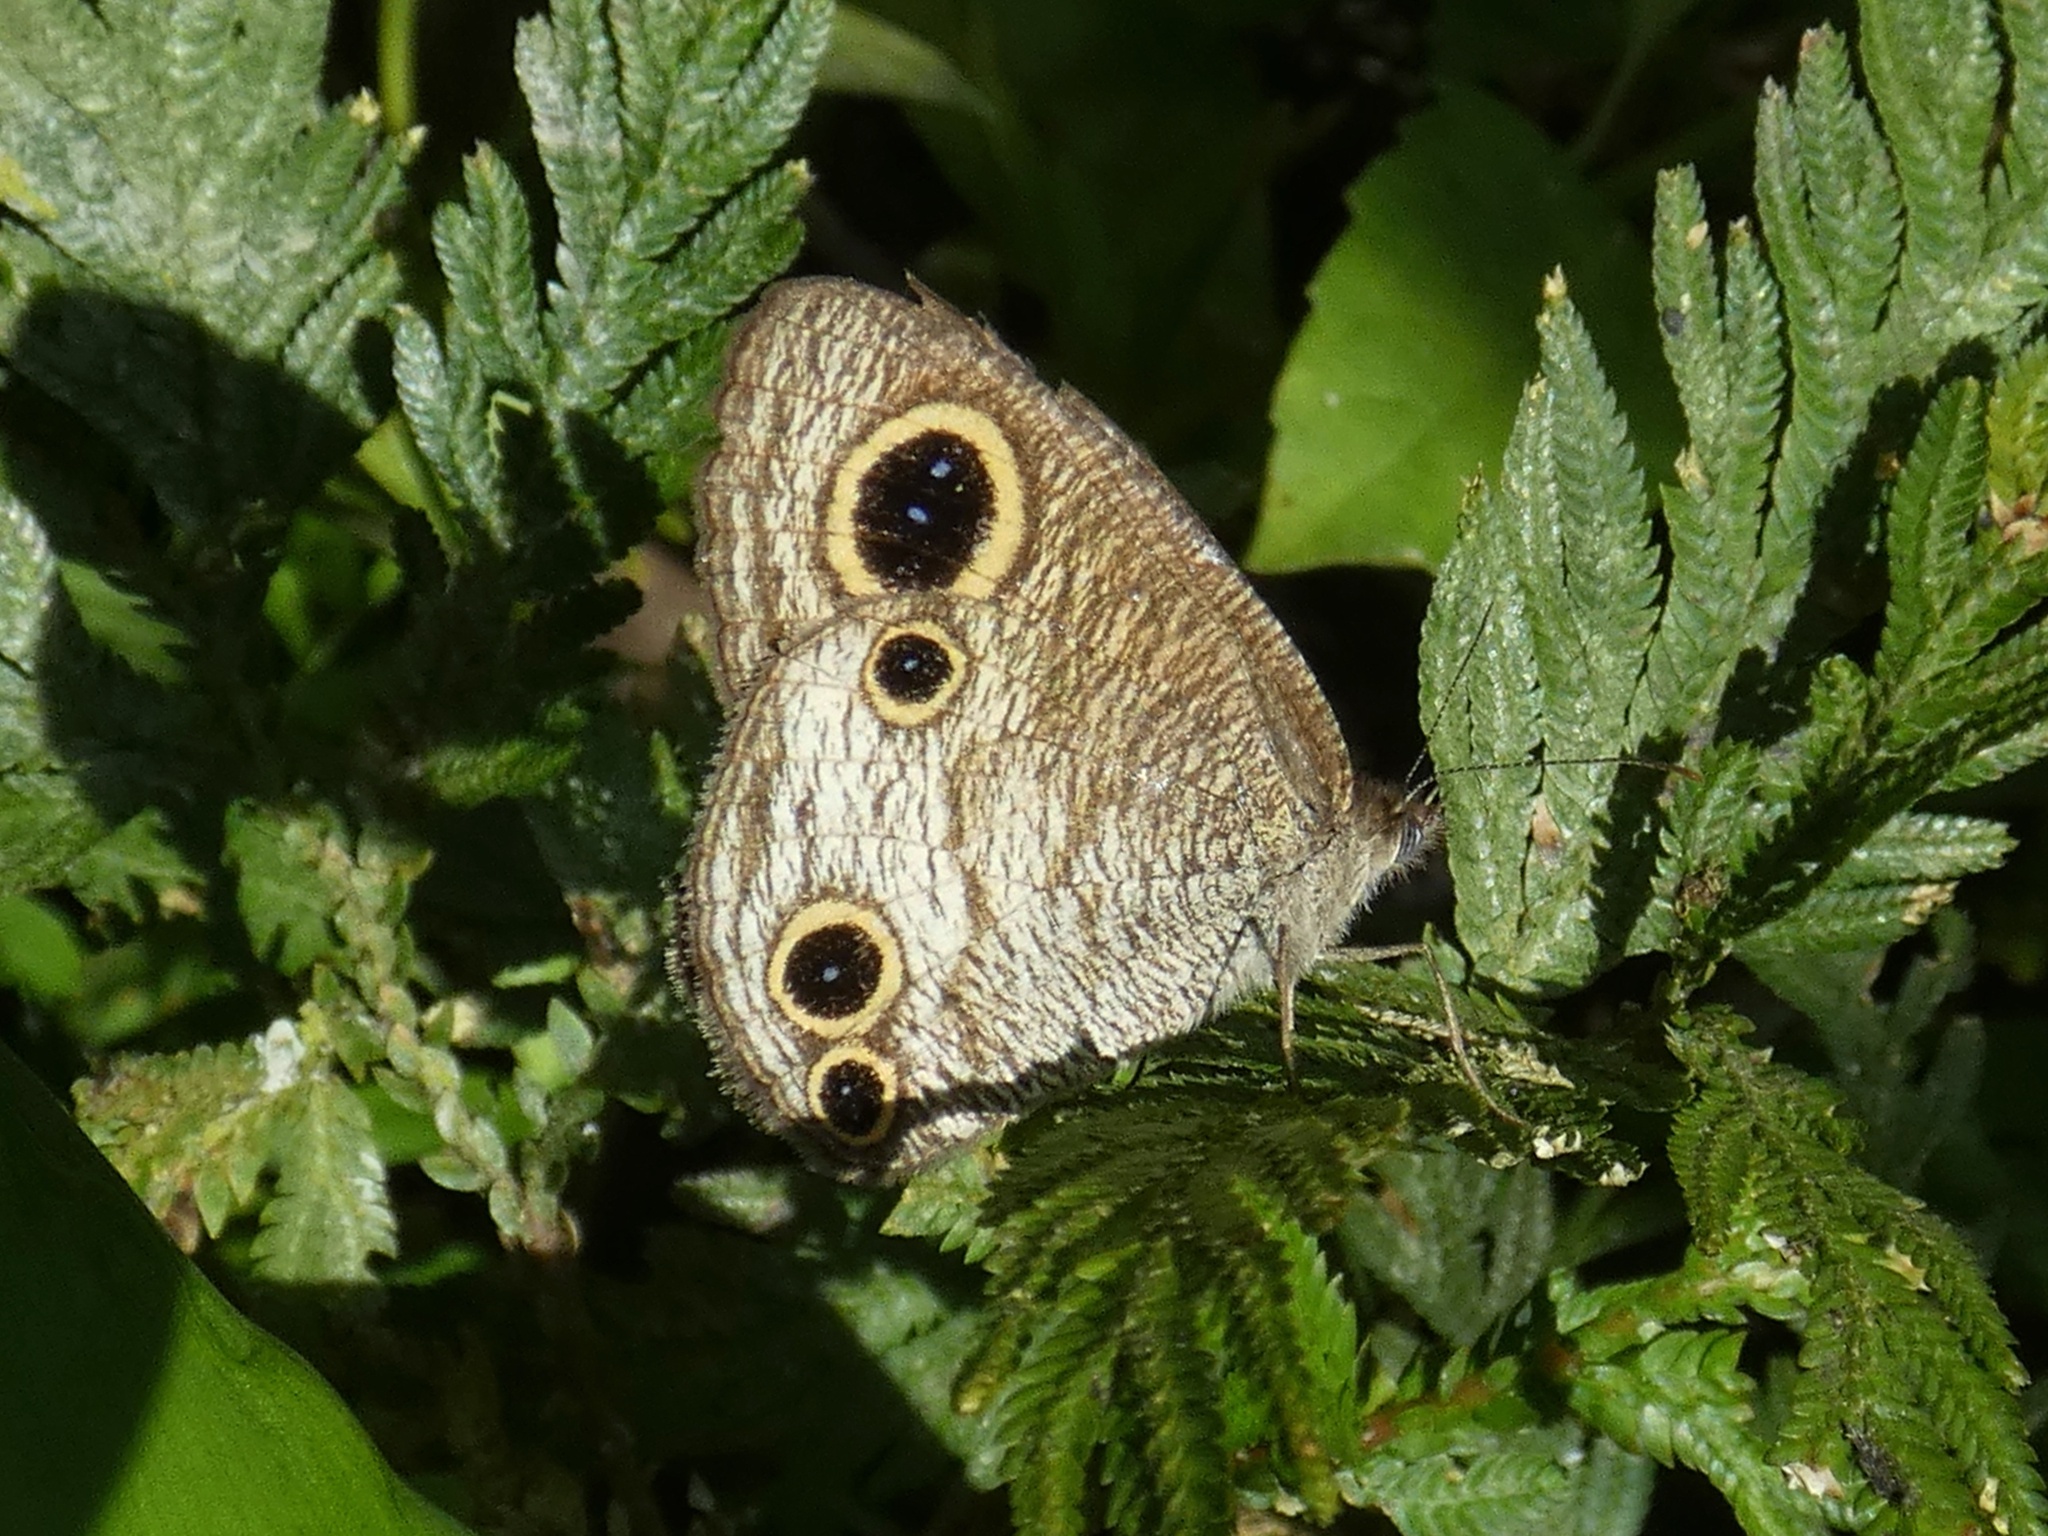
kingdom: Animalia
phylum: Arthropoda
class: Insecta
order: Lepidoptera
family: Nymphalidae
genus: Ypthima
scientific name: Ypthima pandocus
